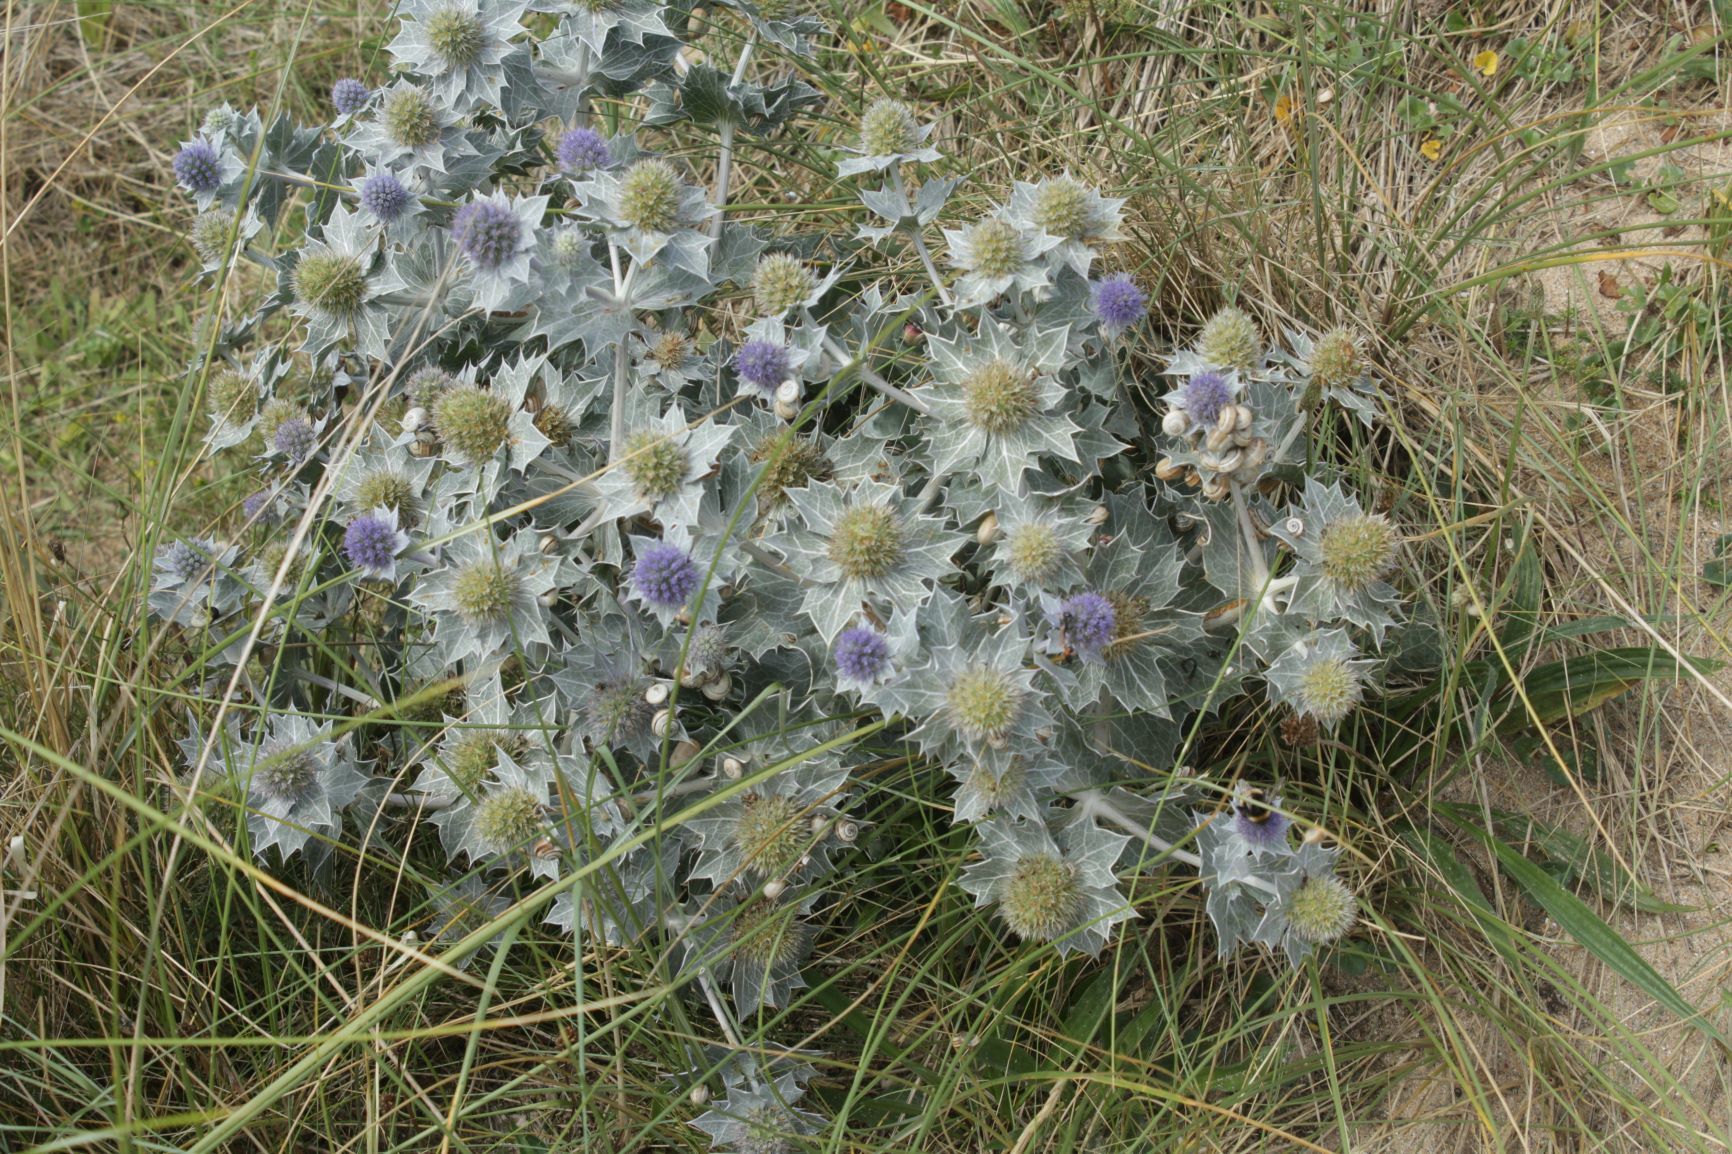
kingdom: Plantae
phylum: Tracheophyta
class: Magnoliopsida
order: Apiales
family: Apiaceae
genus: Eryngium
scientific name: Eryngium maritimum
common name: Sea-holly
